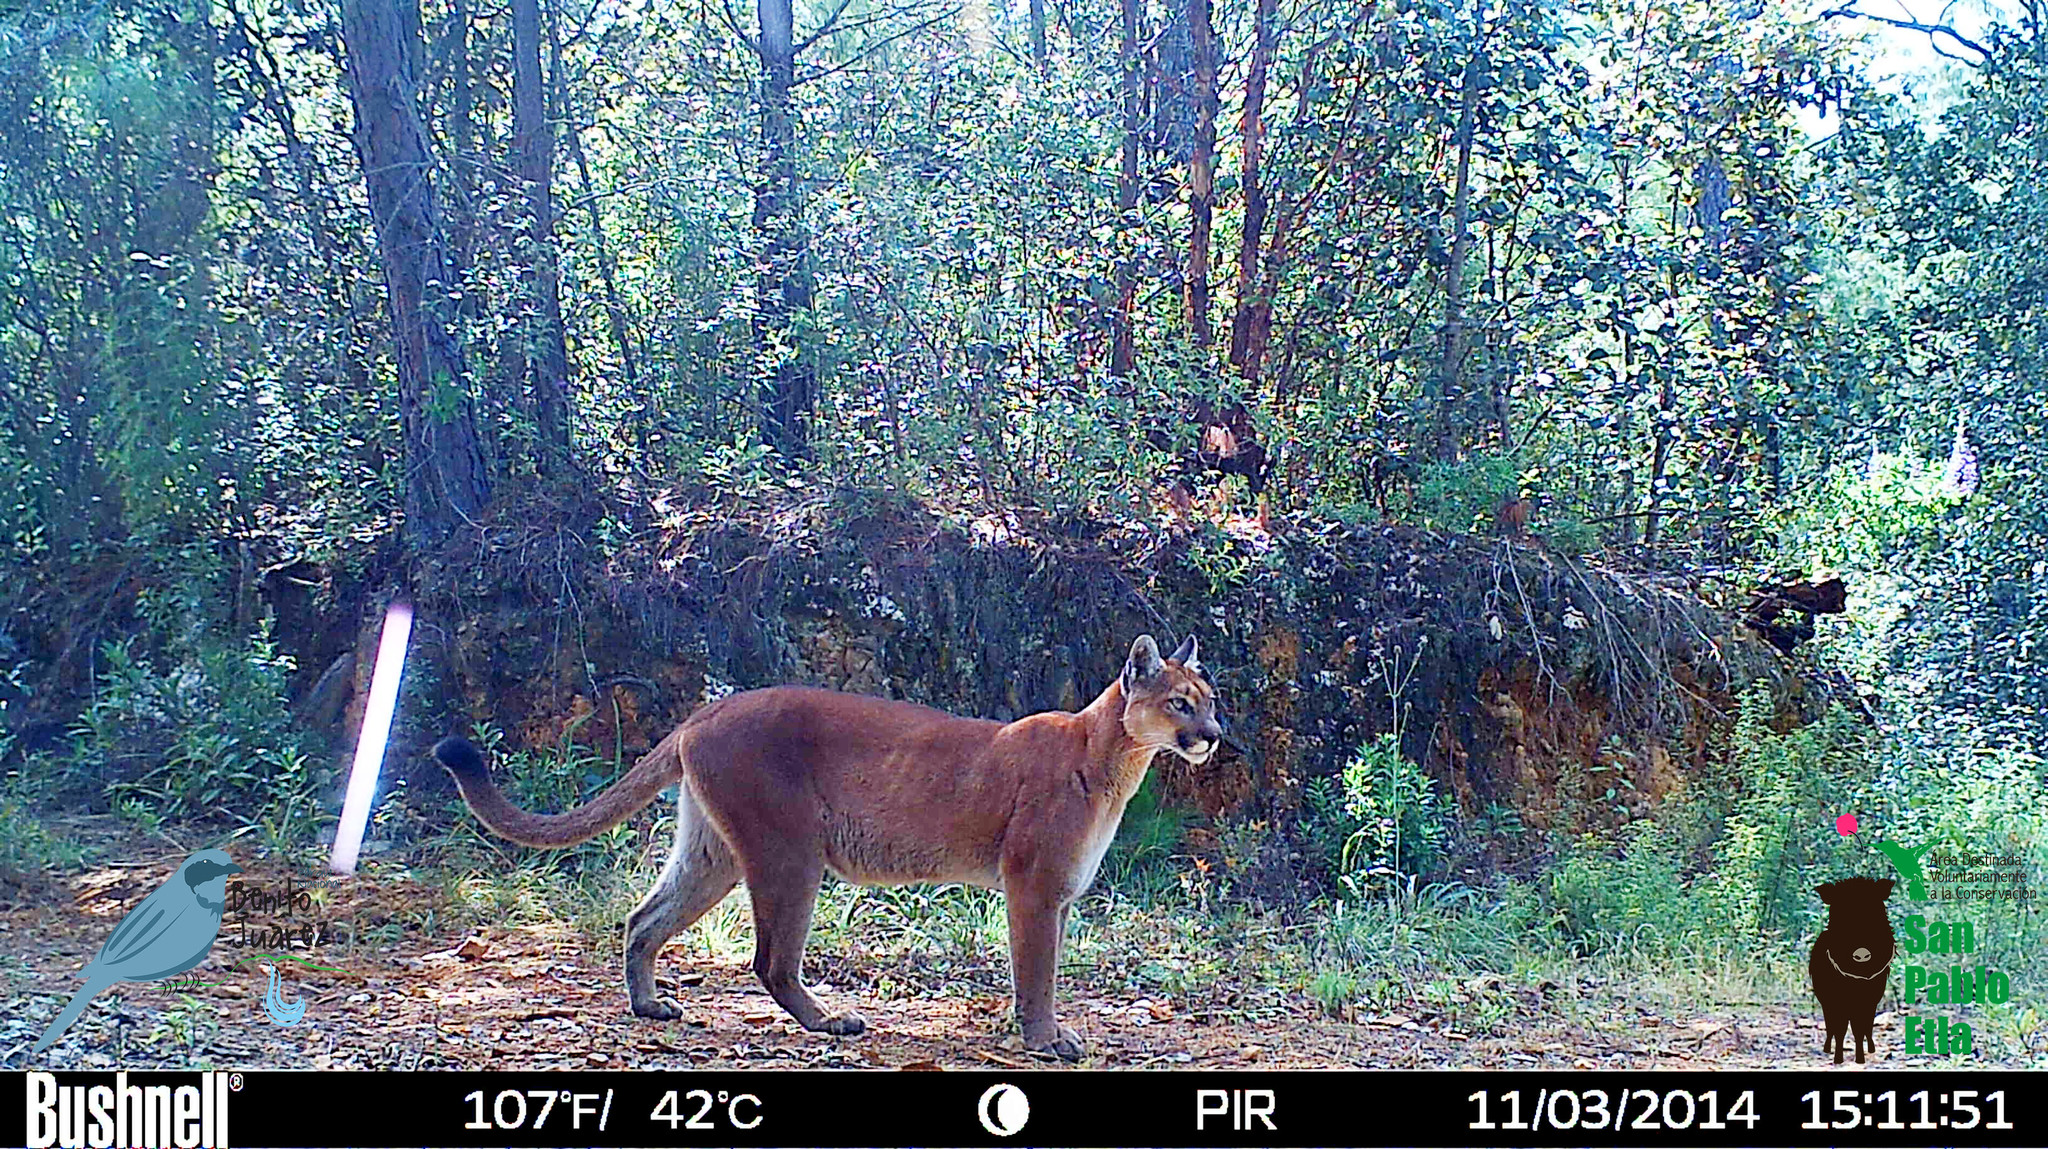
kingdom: Animalia
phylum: Chordata
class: Mammalia
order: Carnivora
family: Felidae
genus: Puma
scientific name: Puma concolor
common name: Puma
